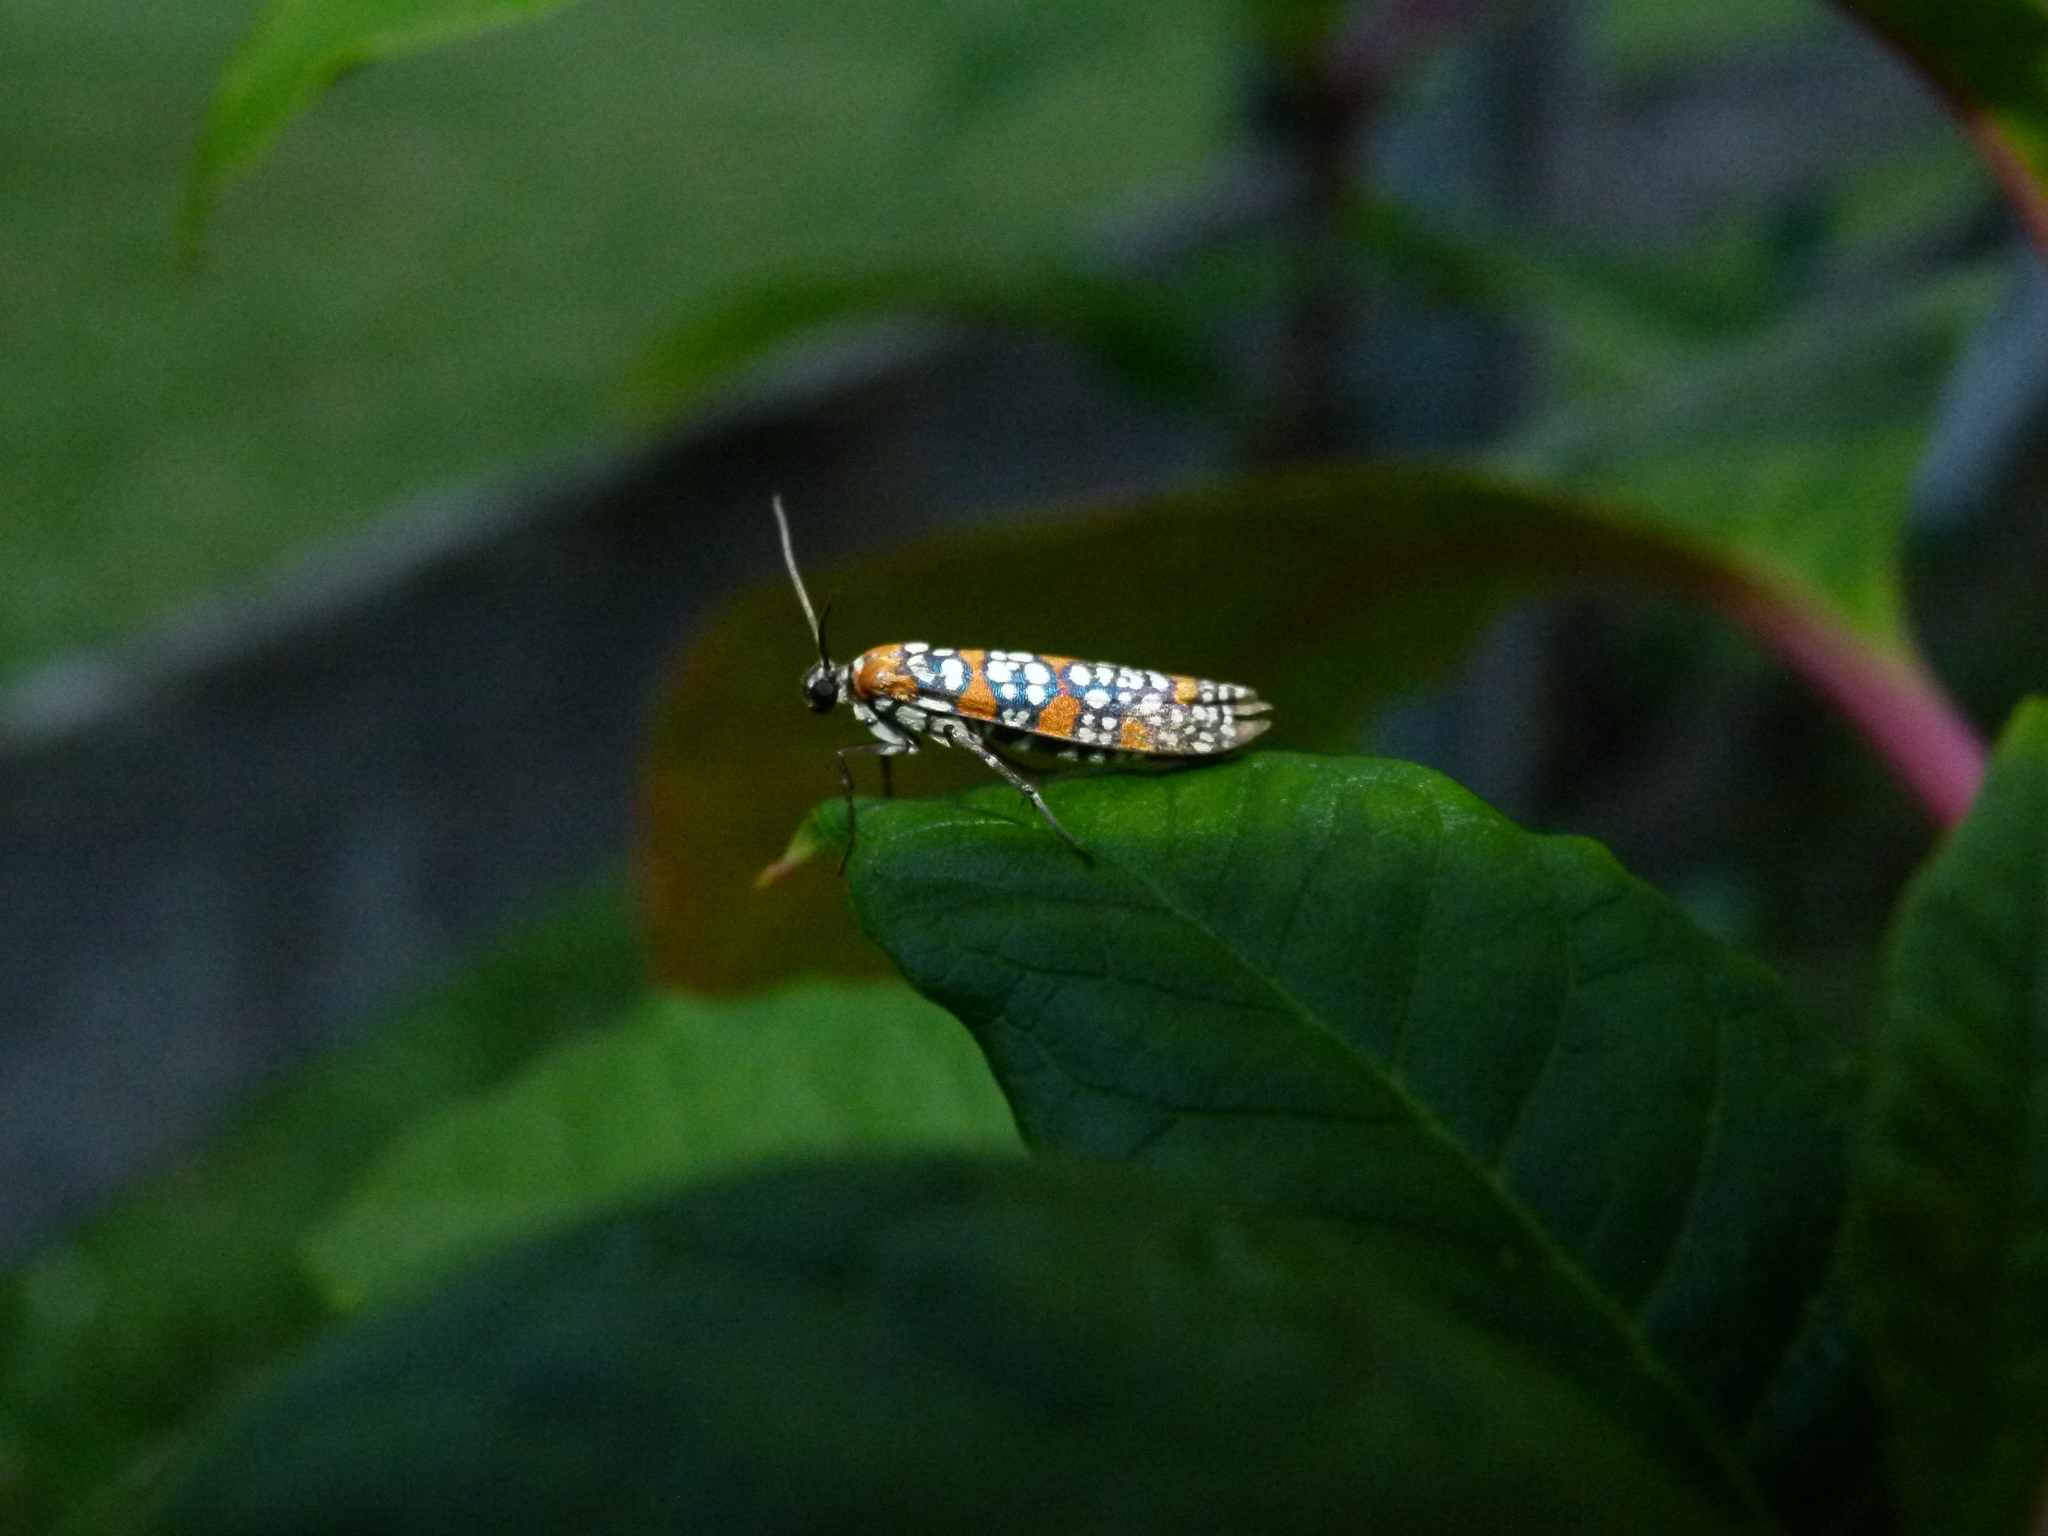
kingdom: Animalia
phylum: Arthropoda
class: Insecta
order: Lepidoptera
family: Attevidae
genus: Atteva
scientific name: Atteva punctella
